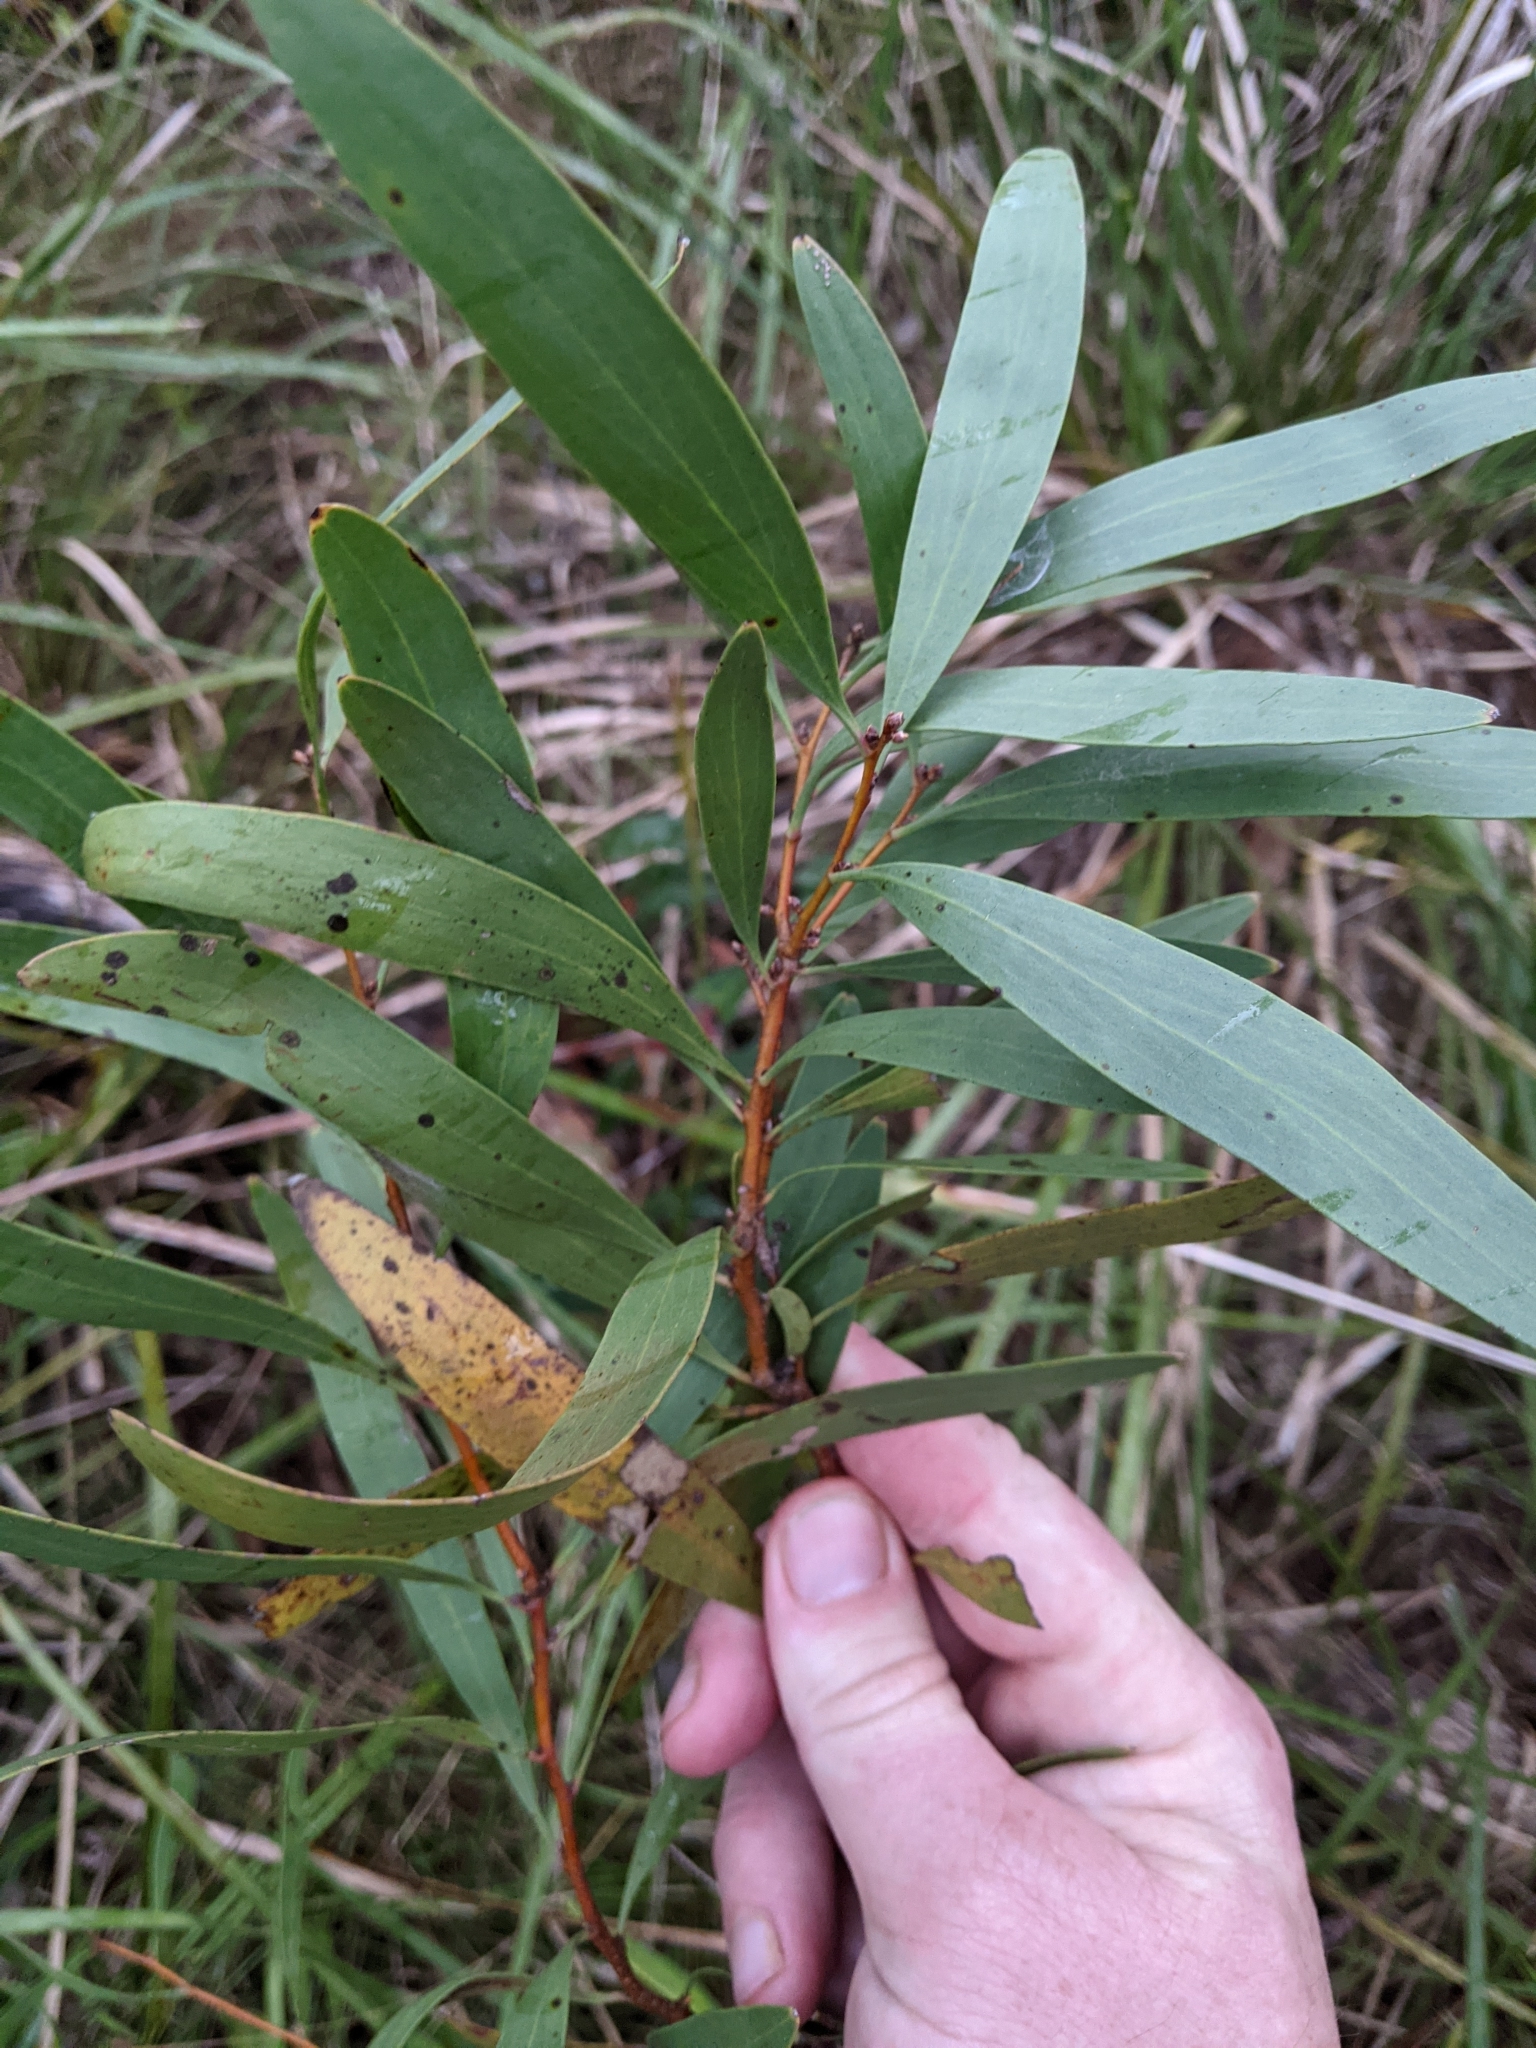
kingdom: Plantae
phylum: Tracheophyta
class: Magnoliopsida
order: Proteales
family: Proteaceae
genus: Hakea
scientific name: Hakea florulenta
